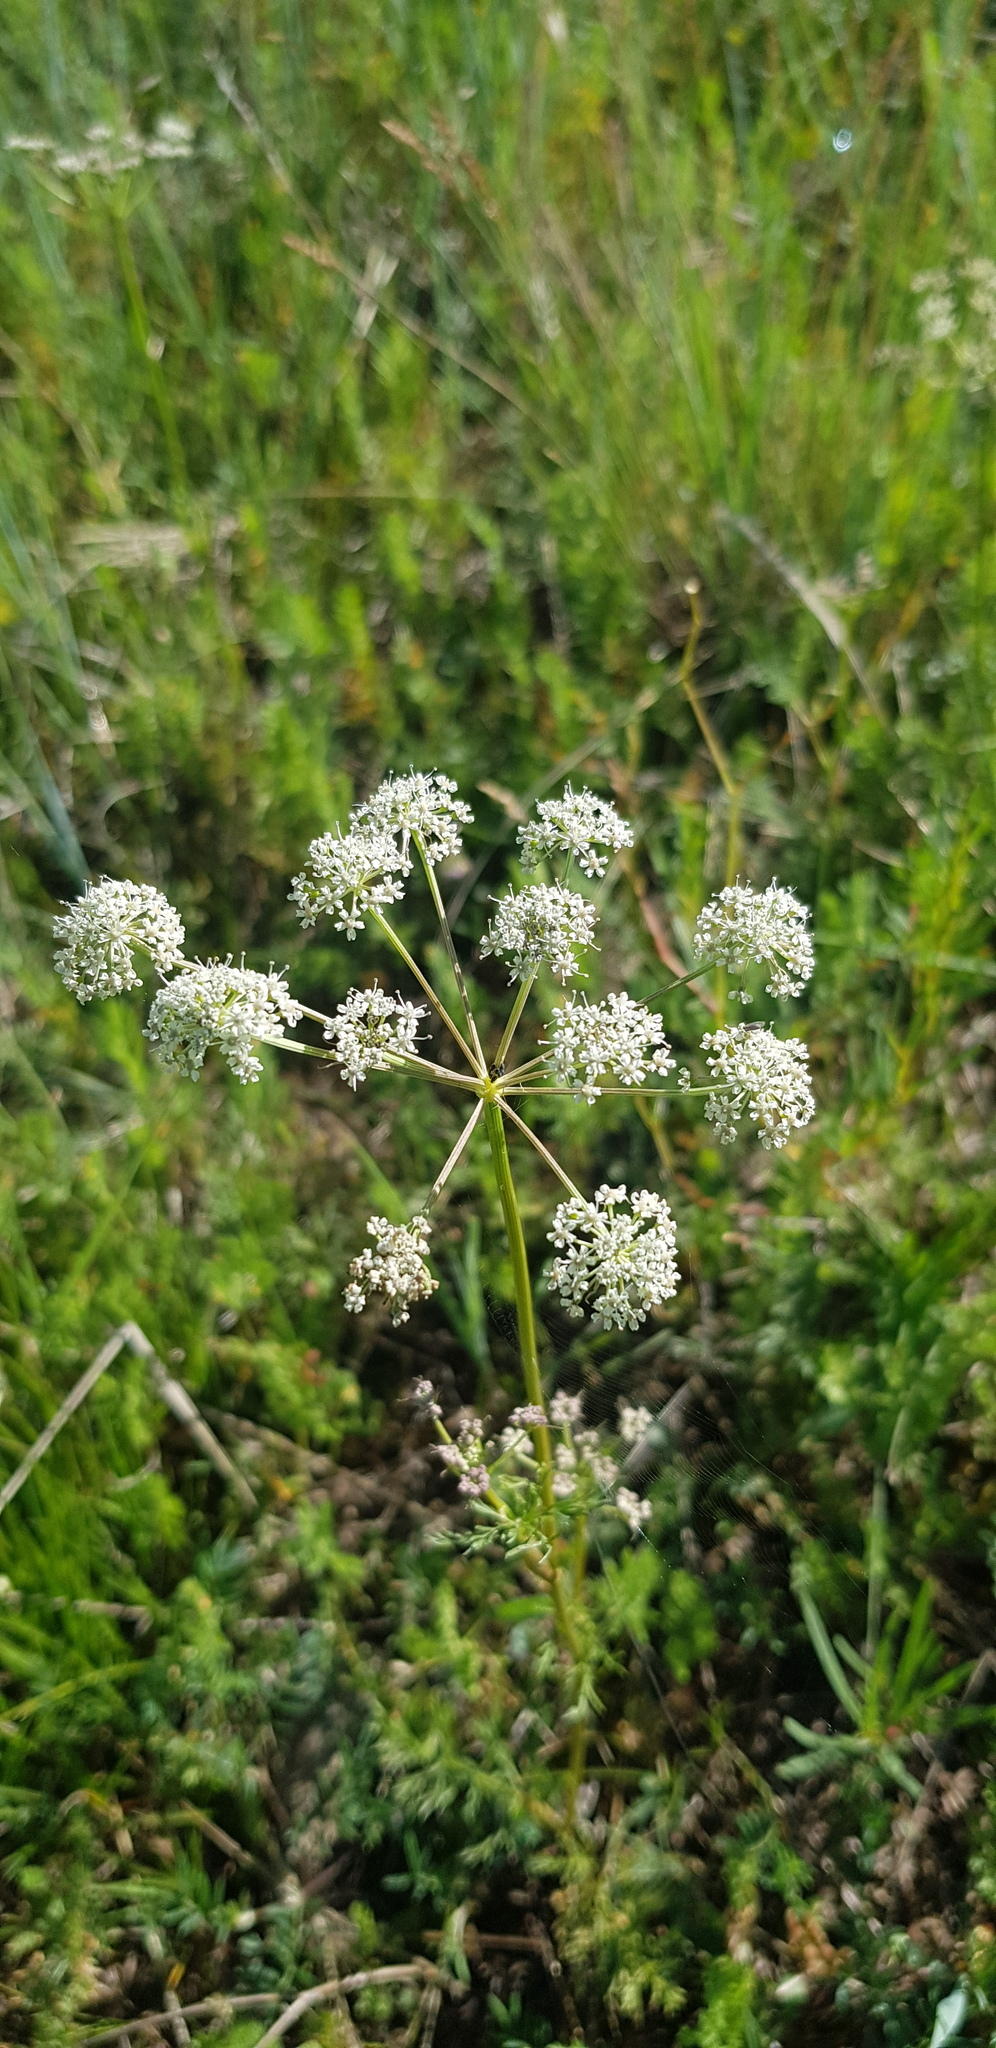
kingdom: Plantae
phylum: Tracheophyta
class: Magnoliopsida
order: Apiales
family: Apiaceae
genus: Peucedanum
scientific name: Peucedanum vaginatum
